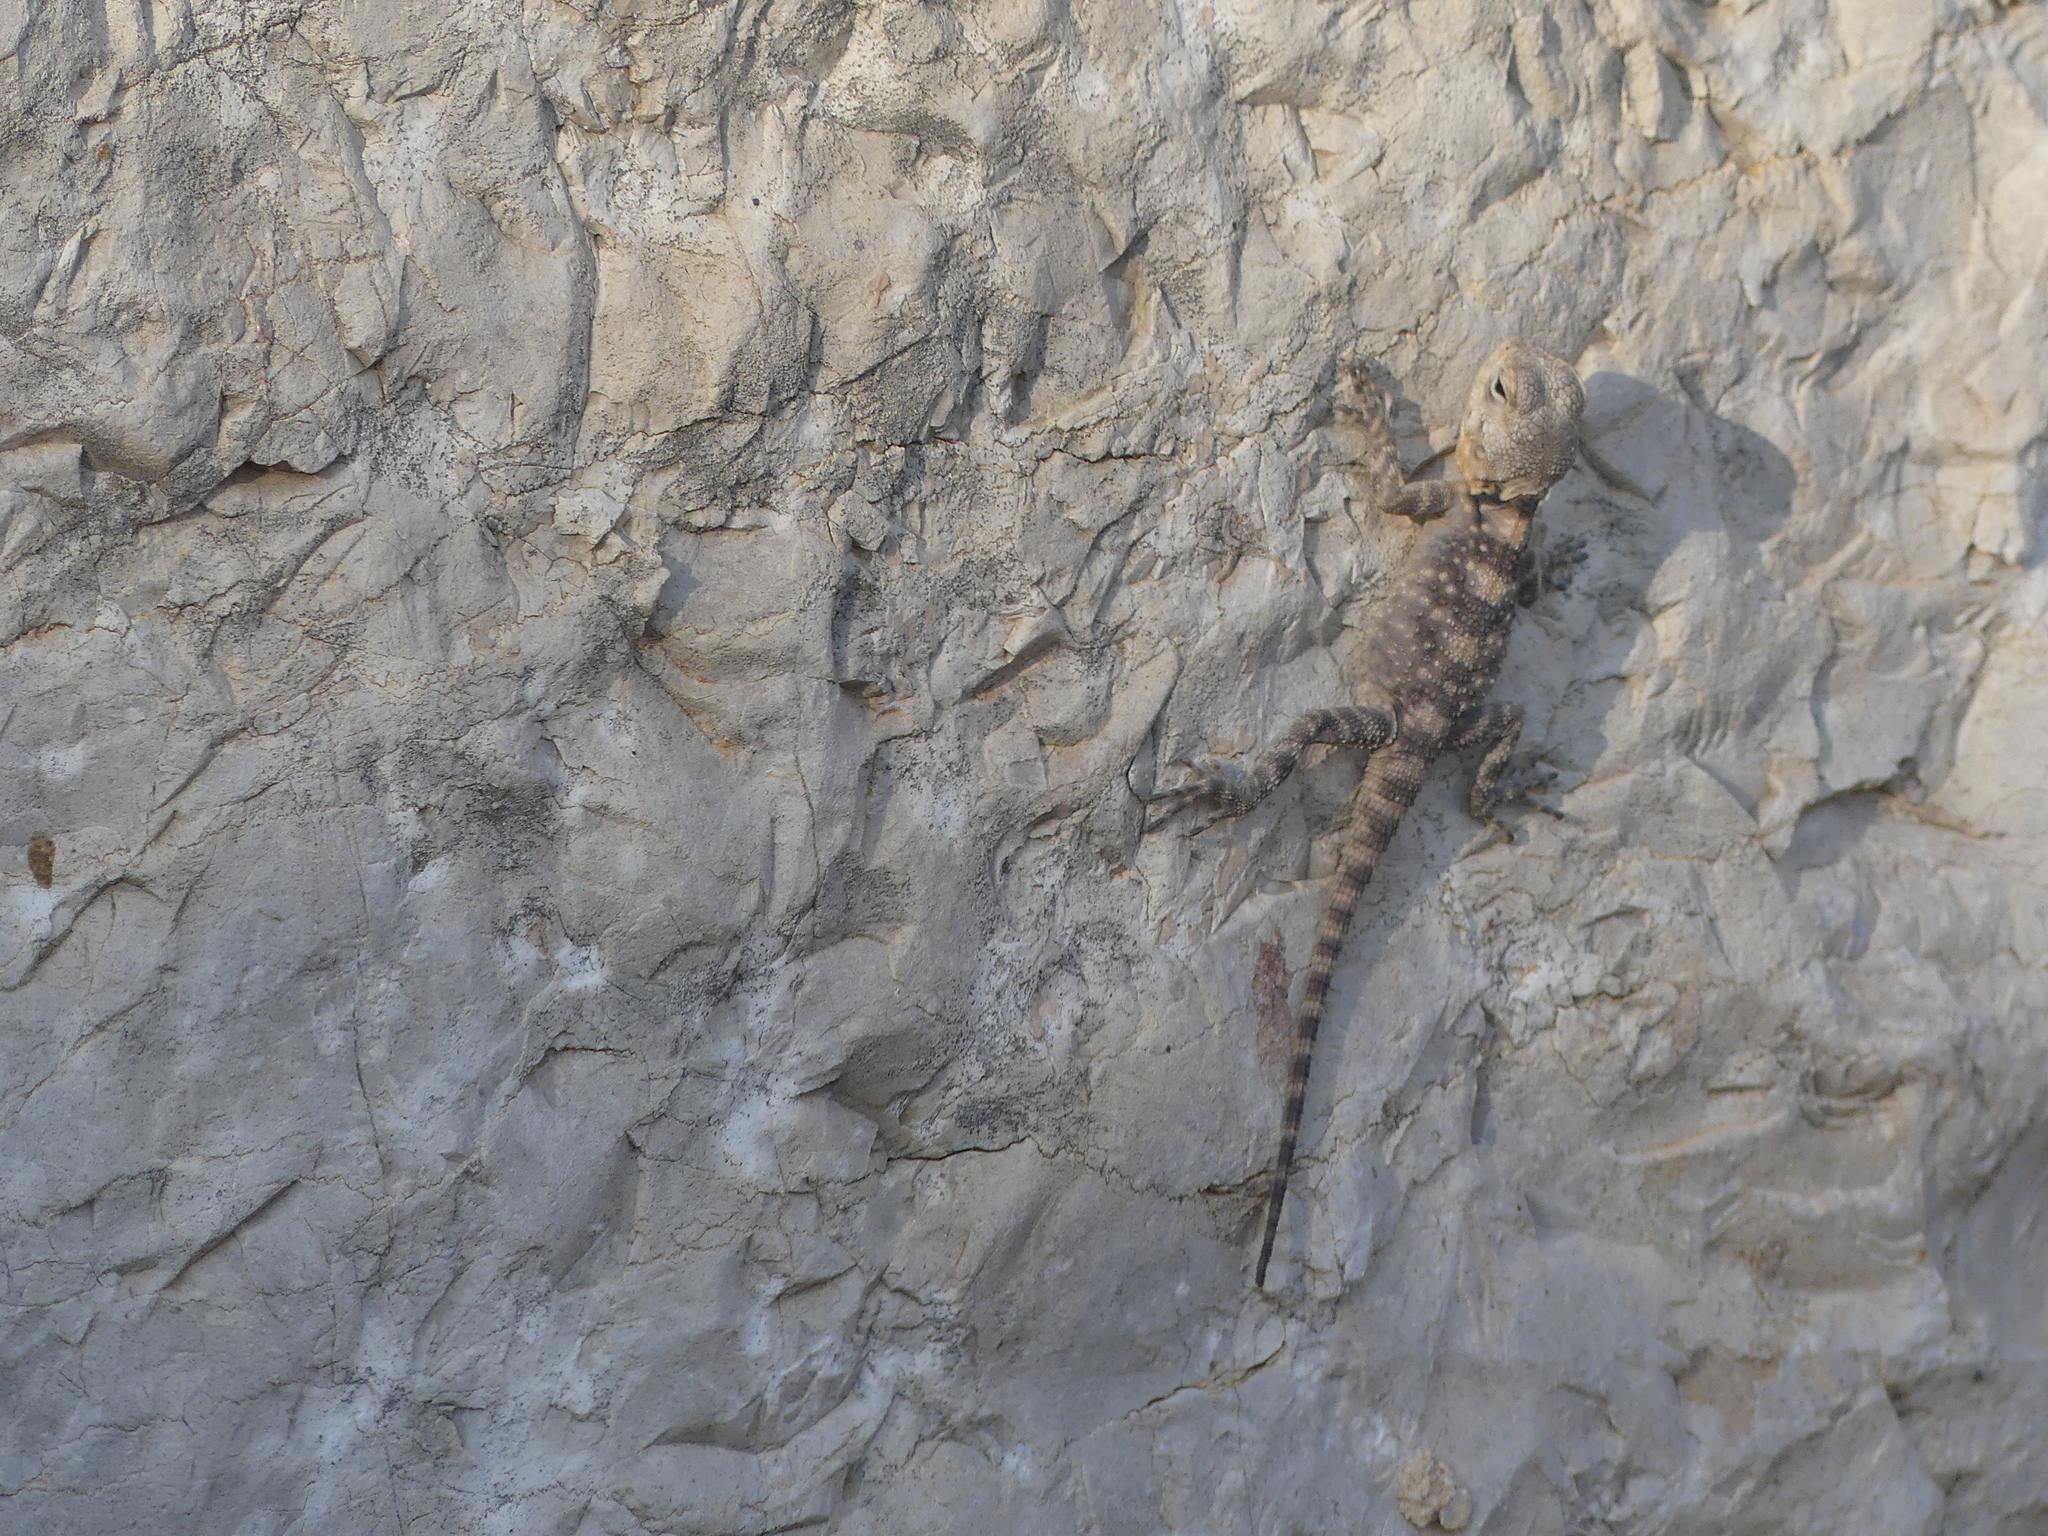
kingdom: Animalia
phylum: Chordata
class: Squamata
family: Agamidae
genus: Laudakia
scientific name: Laudakia vulgaris
